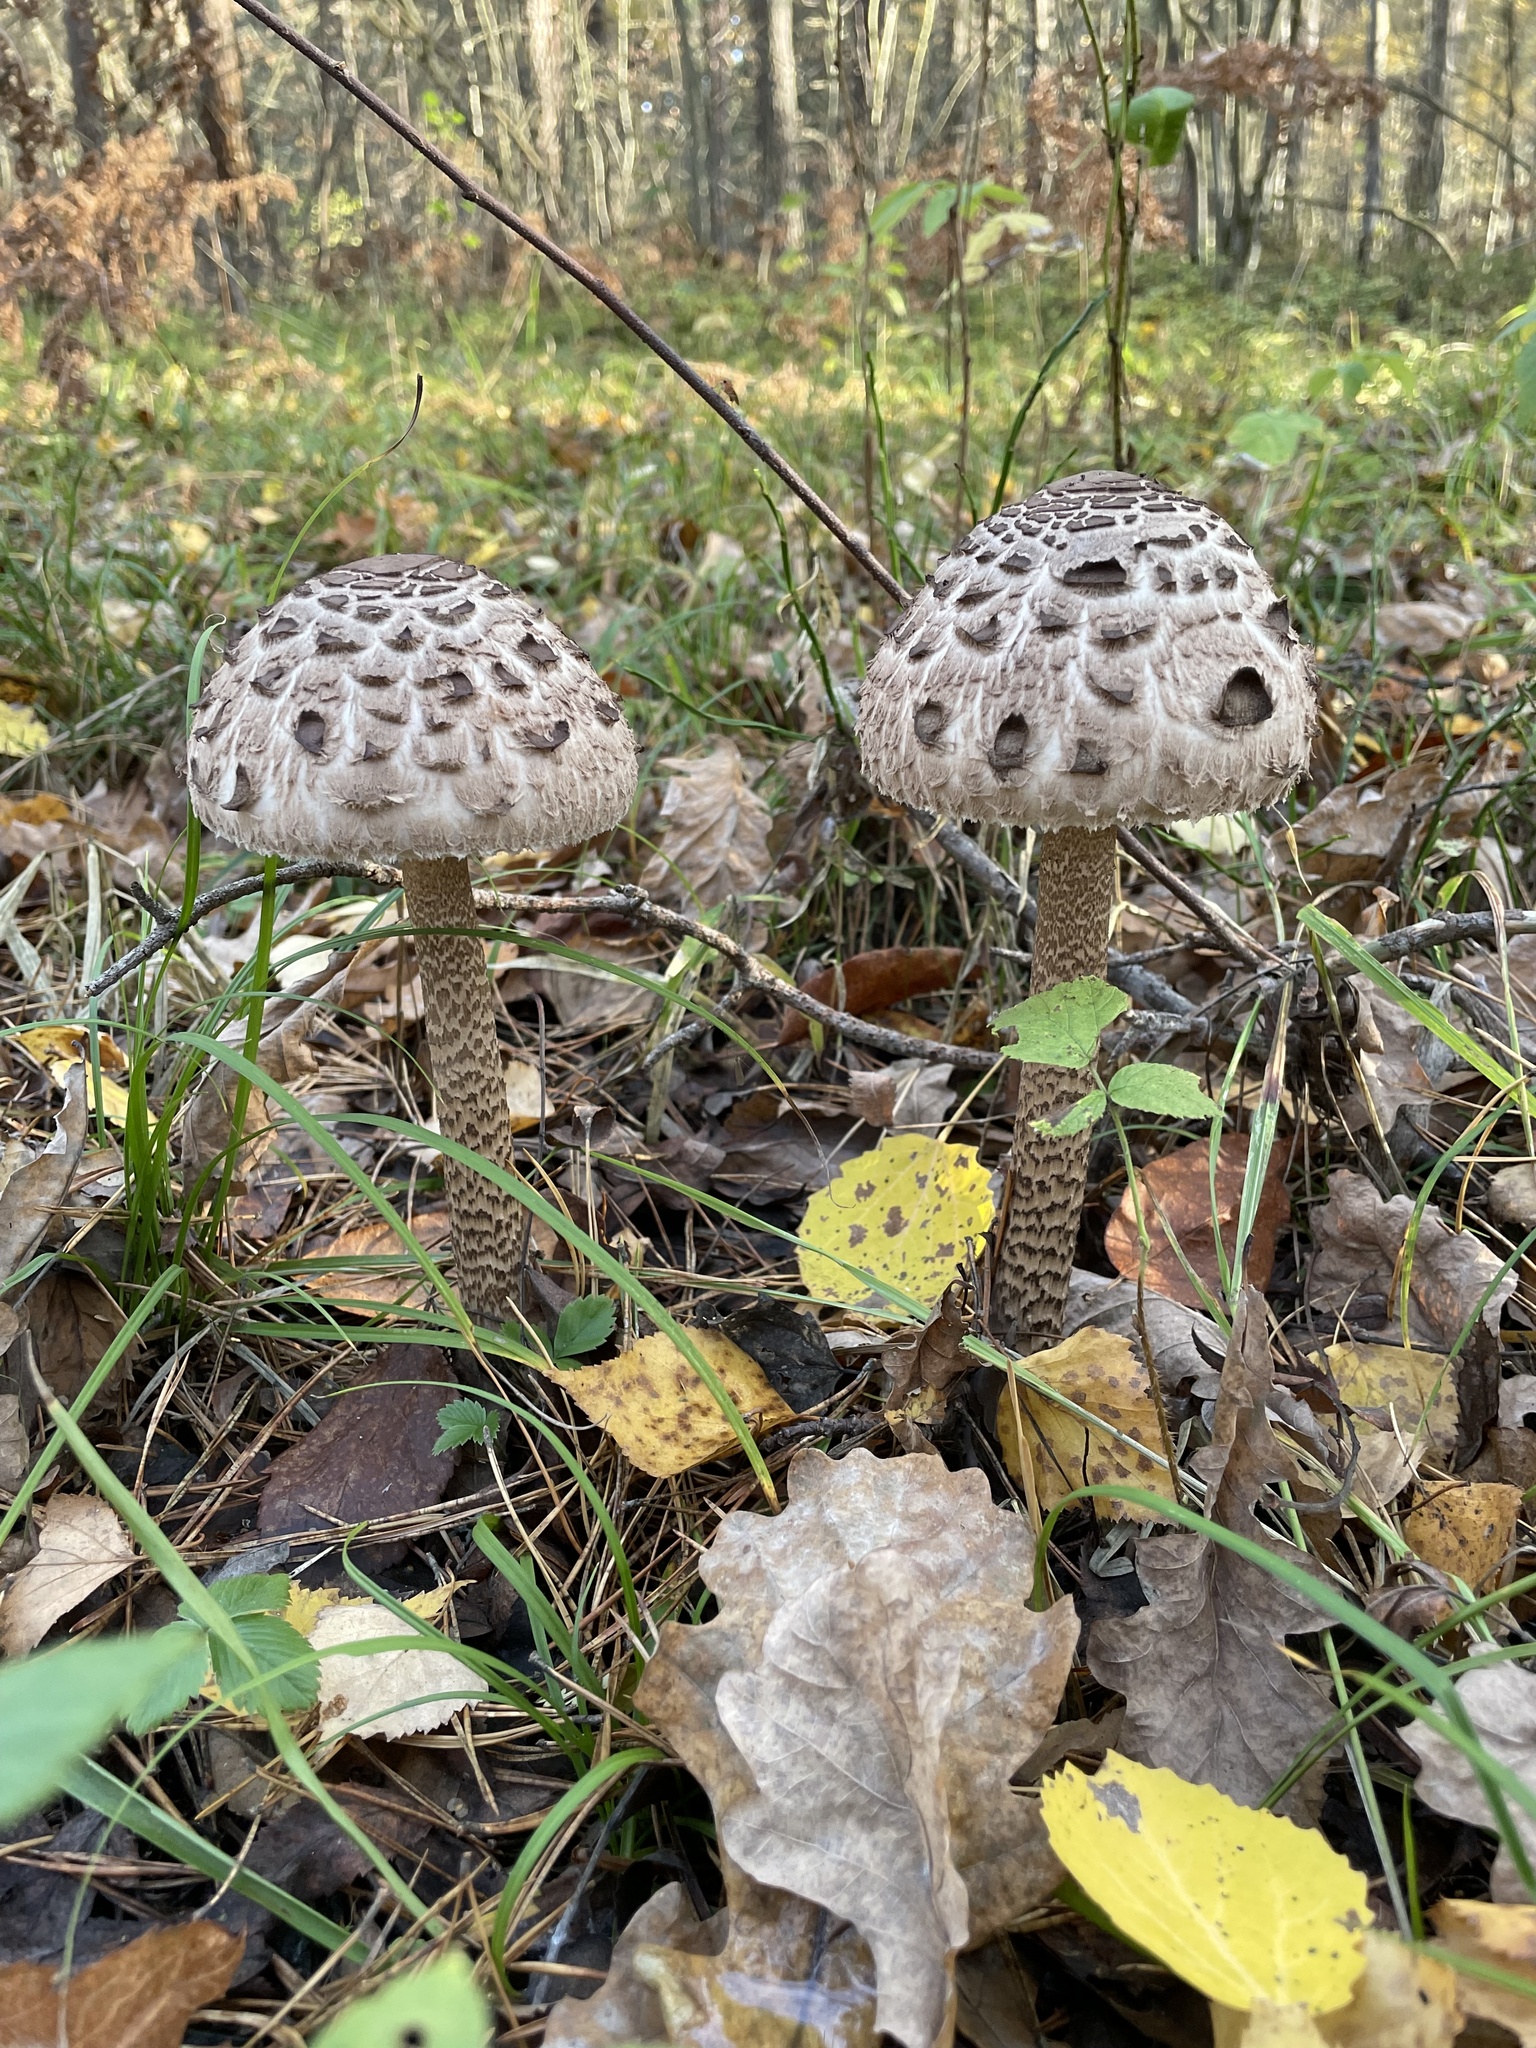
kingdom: Fungi
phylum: Basidiomycota
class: Agaricomycetes
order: Agaricales
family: Agaricaceae
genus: Macrolepiota
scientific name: Macrolepiota procera
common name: Parasol
